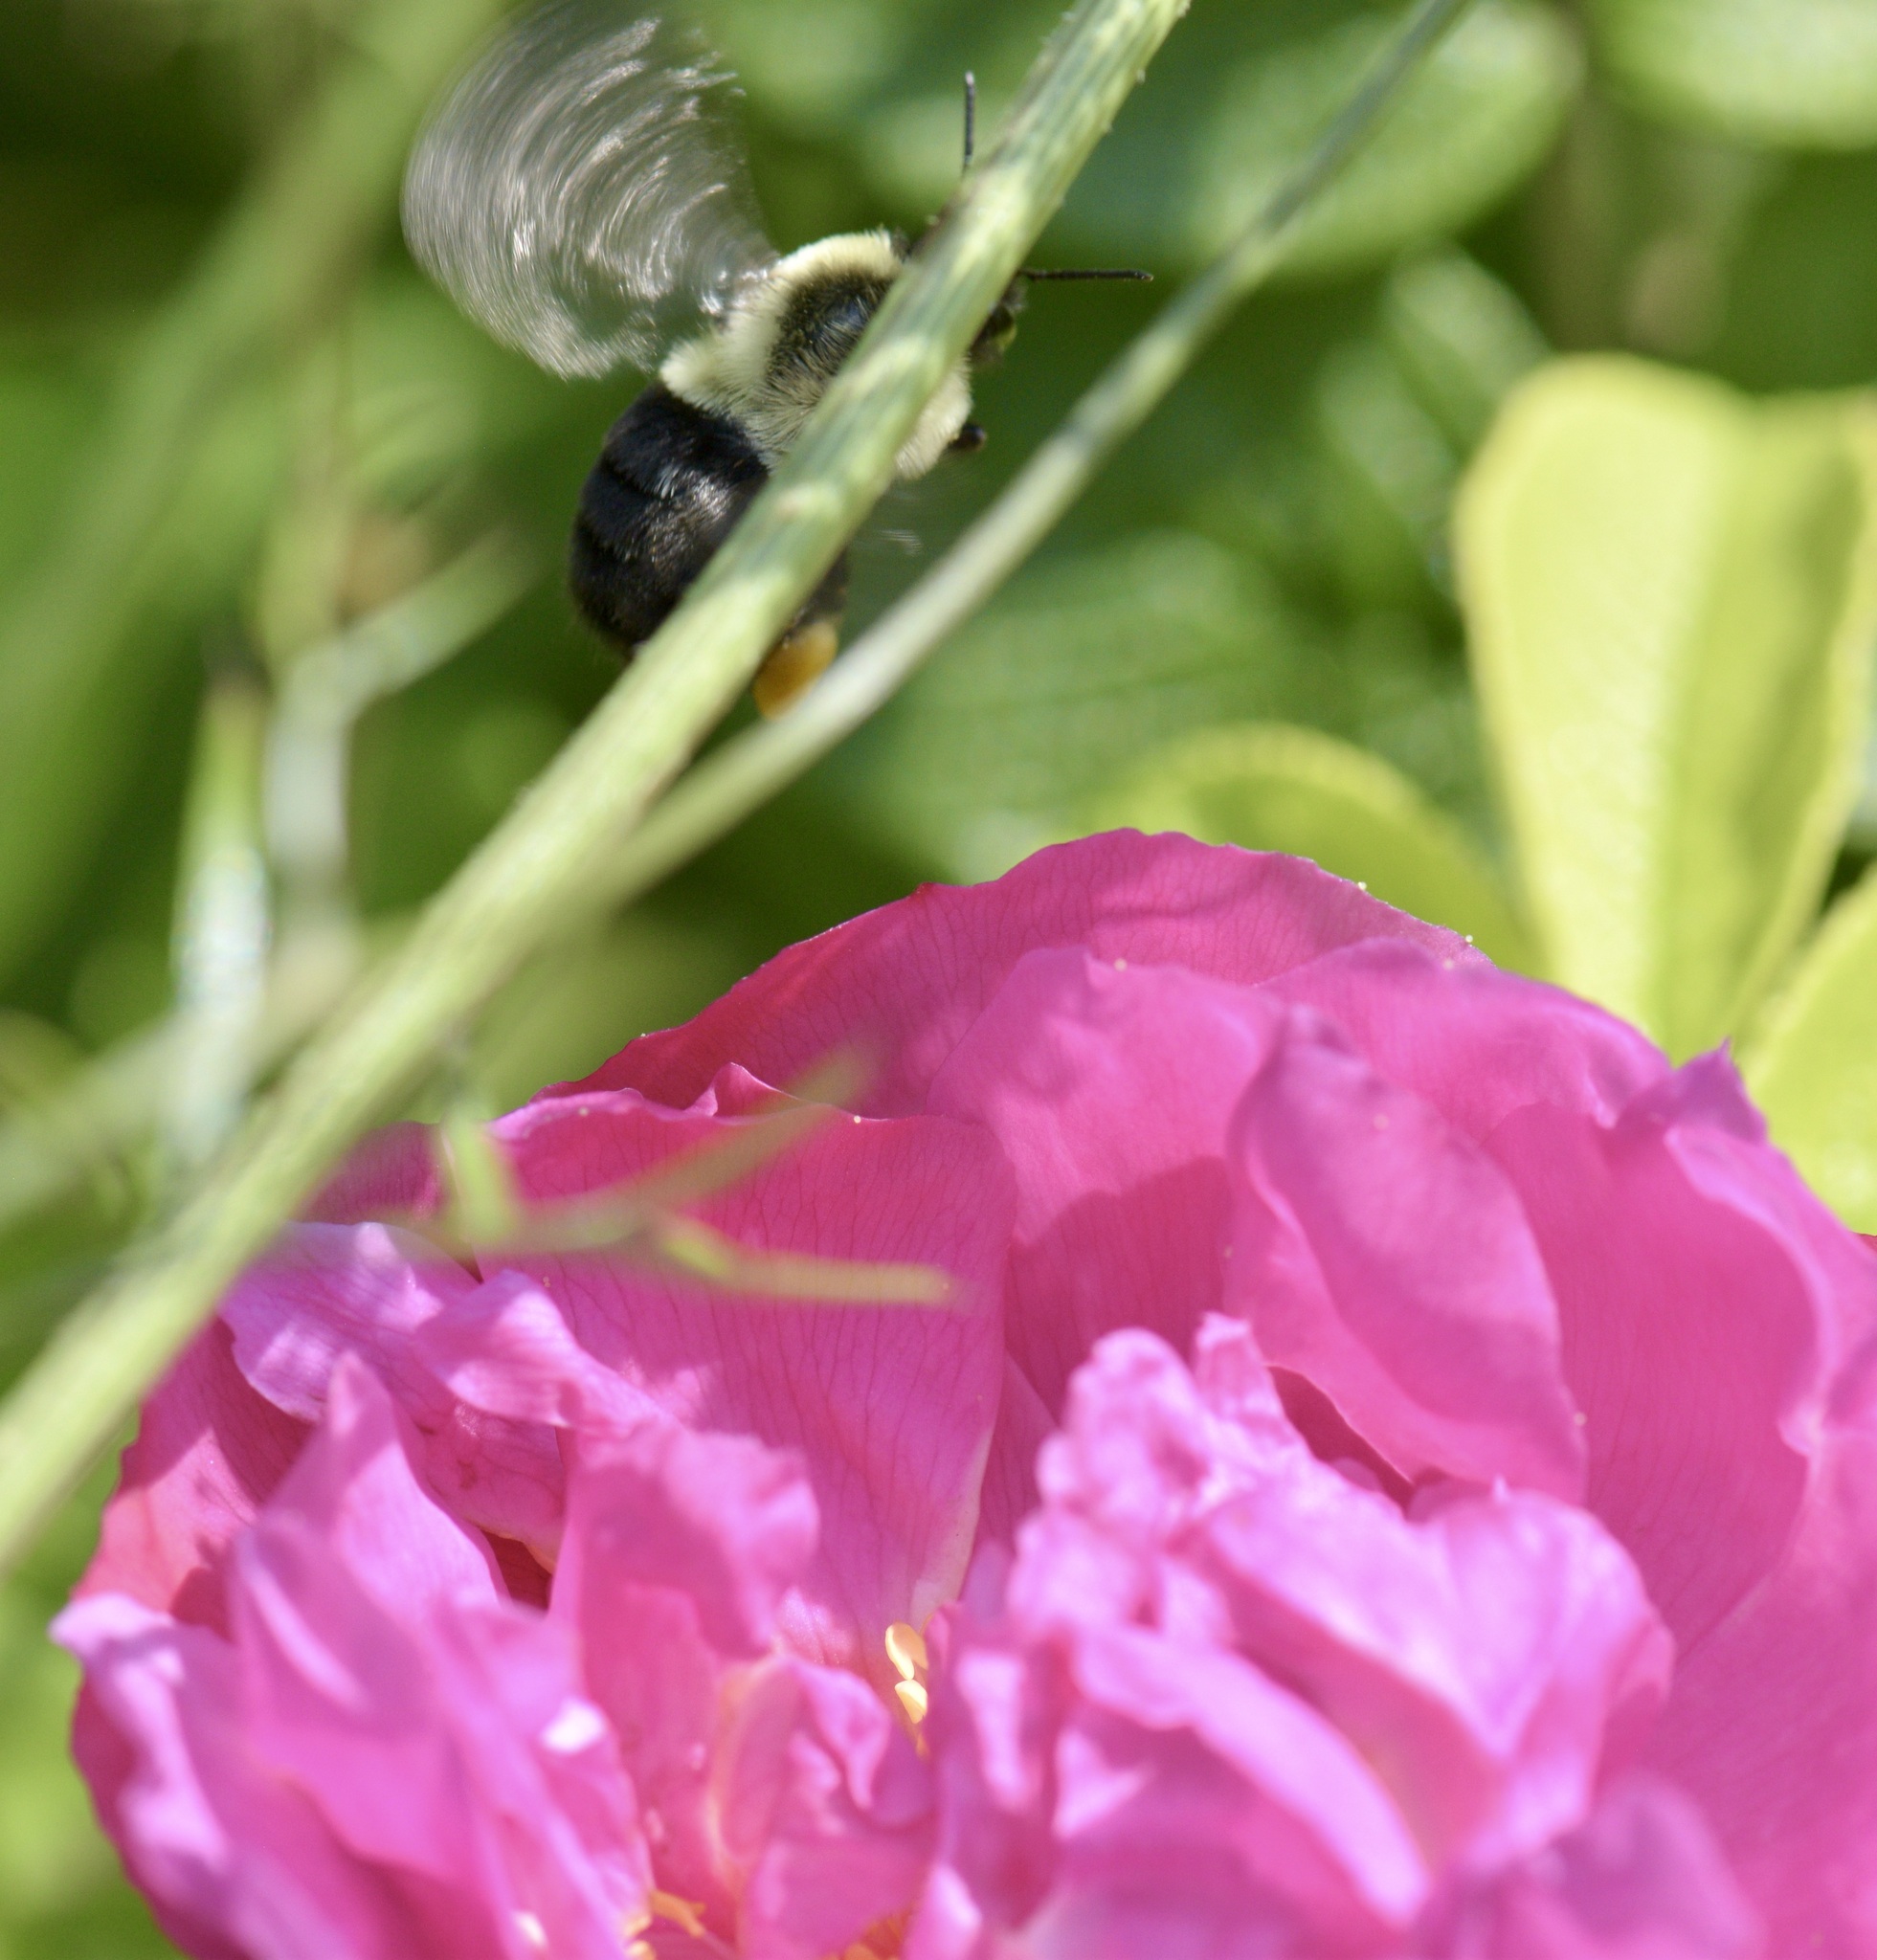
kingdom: Animalia
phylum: Arthropoda
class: Insecta
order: Hymenoptera
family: Apidae
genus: Bombus
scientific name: Bombus impatiens
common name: Common eastern bumble bee
